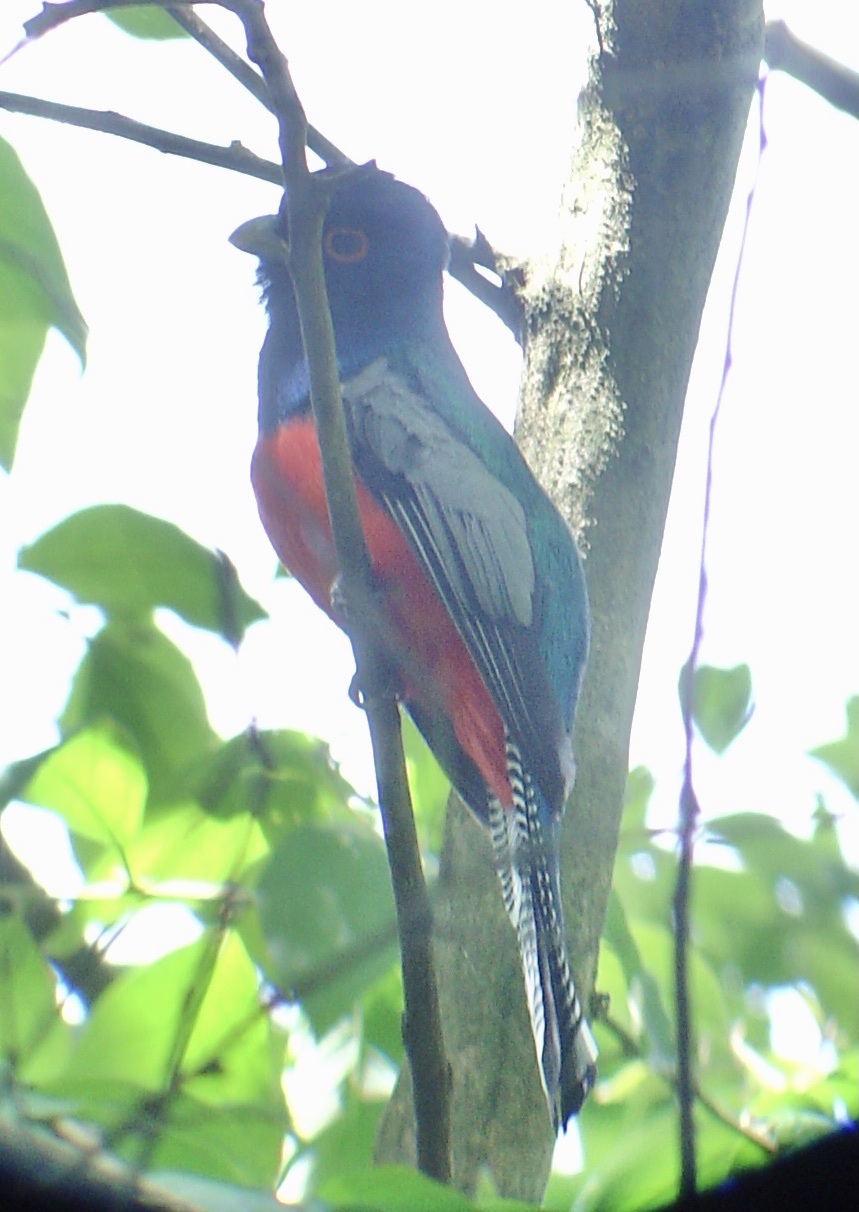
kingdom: Animalia
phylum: Chordata
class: Aves
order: Trogoniformes
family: Trogonidae
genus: Trogon
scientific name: Trogon curucui
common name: Blue-crowned trogon
